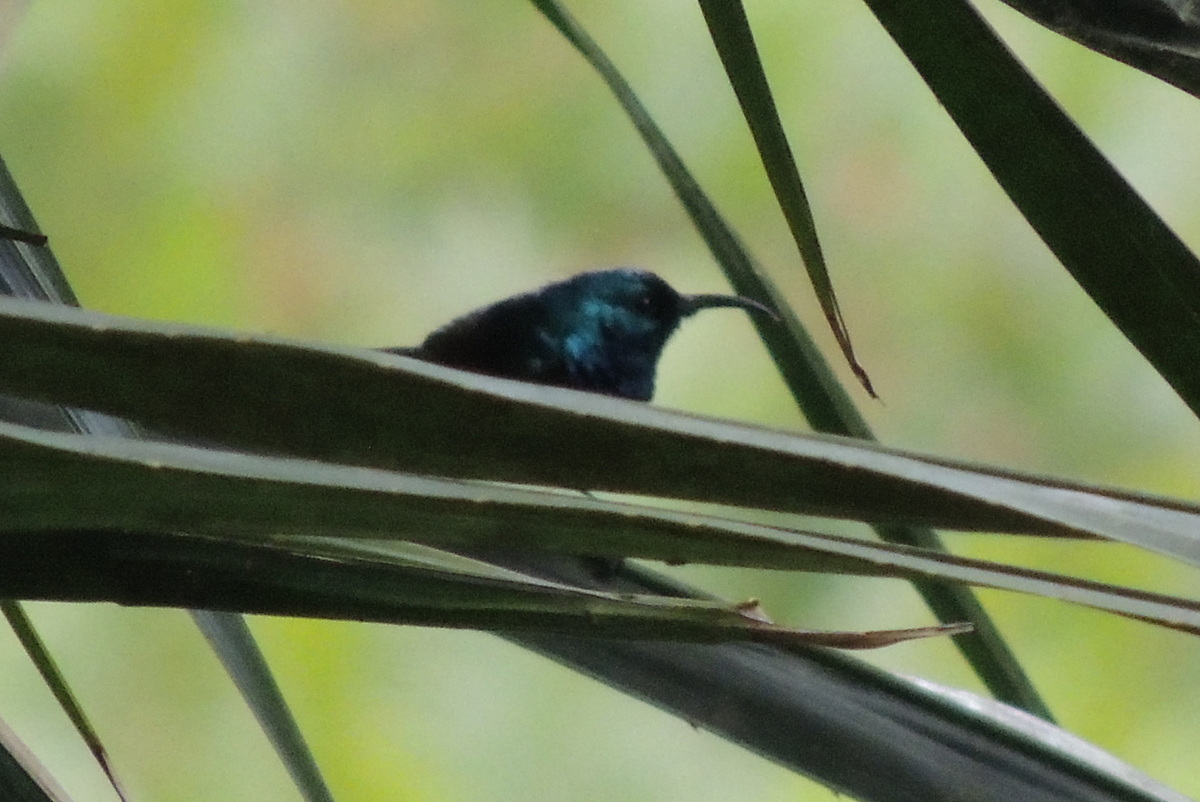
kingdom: Animalia
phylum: Chordata
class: Aves
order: Passeriformes
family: Nectariniidae
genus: Cinnyris
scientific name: Cinnyris sovimanga
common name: Souimanga sunbird
